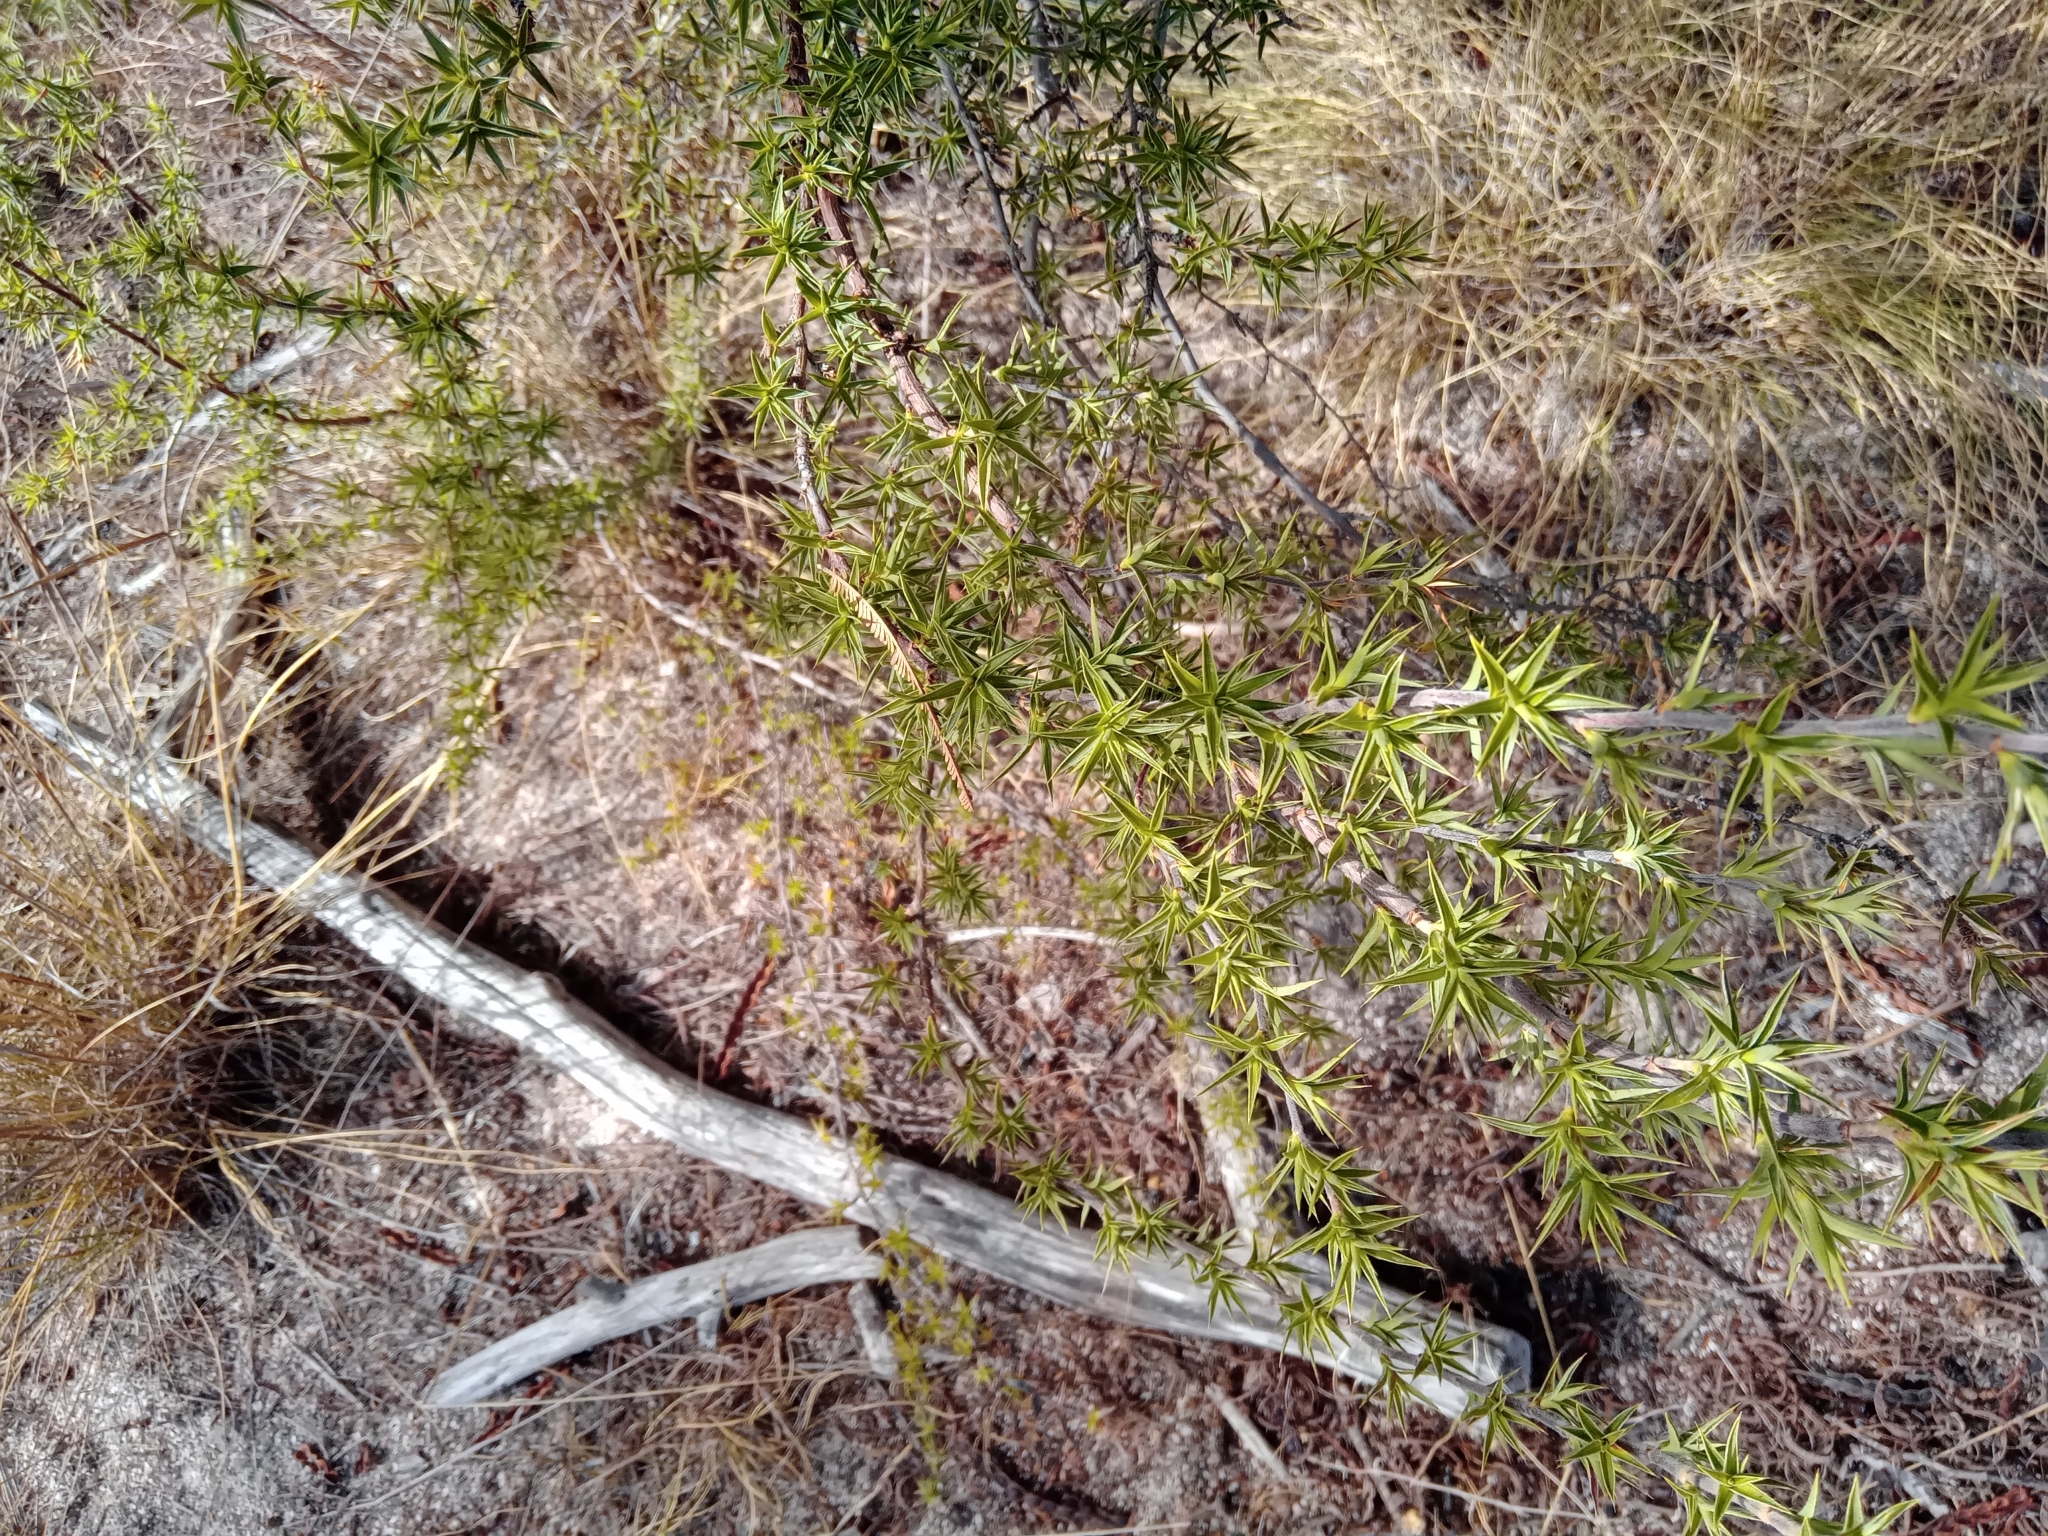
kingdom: Plantae
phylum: Tracheophyta
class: Magnoliopsida
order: Rosales
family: Rosaceae
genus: Cliffortia
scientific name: Cliffortia ruscifolia
